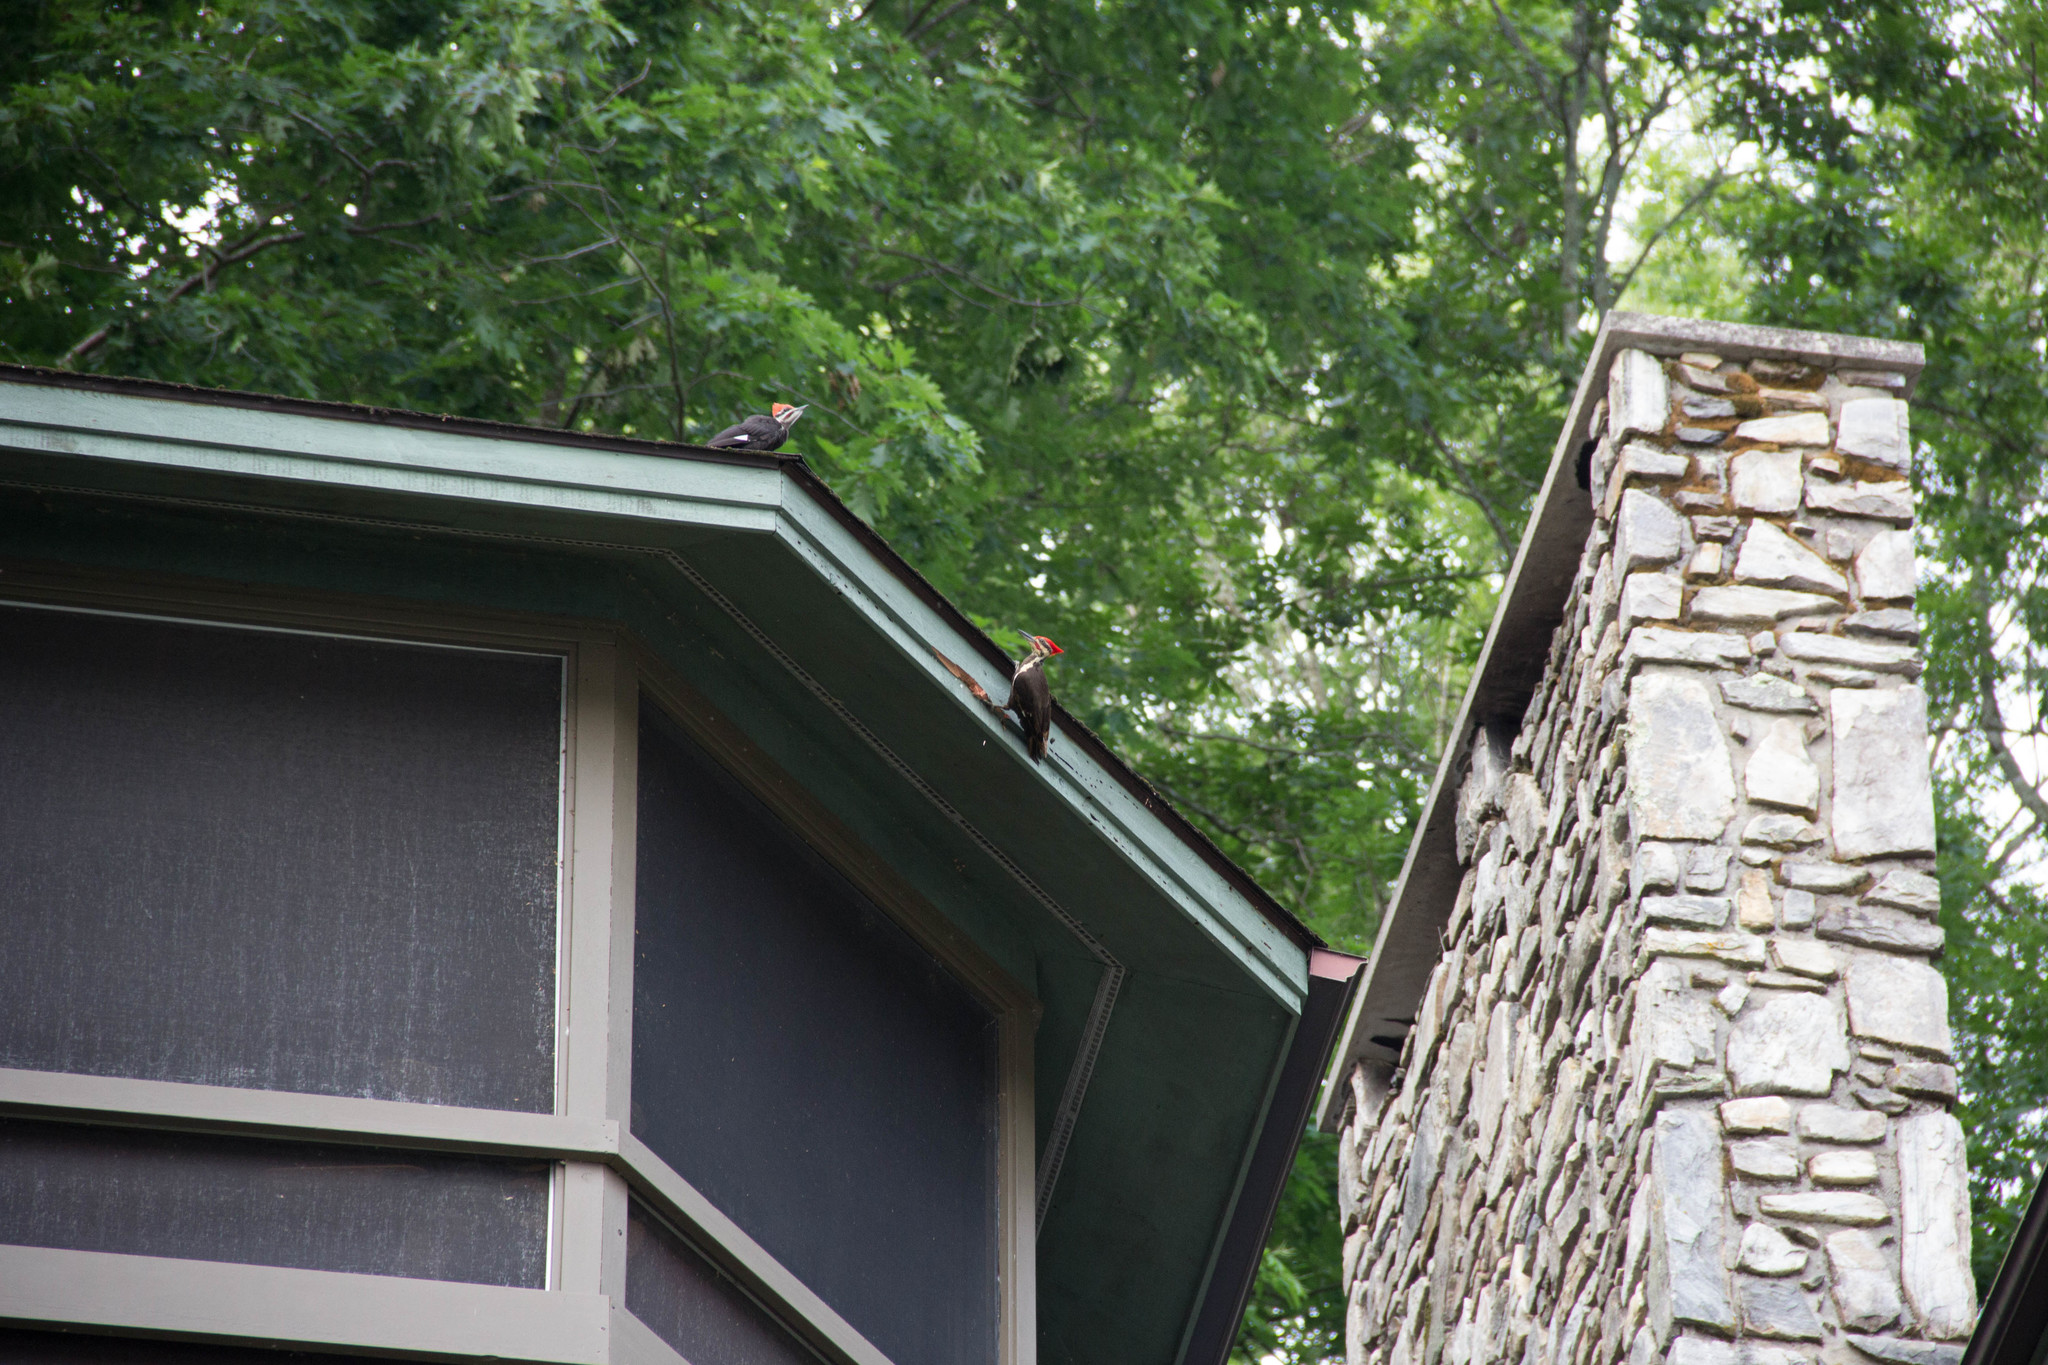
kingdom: Animalia
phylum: Chordata
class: Aves
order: Piciformes
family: Picidae
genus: Dryocopus
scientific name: Dryocopus pileatus
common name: Pileated woodpecker
